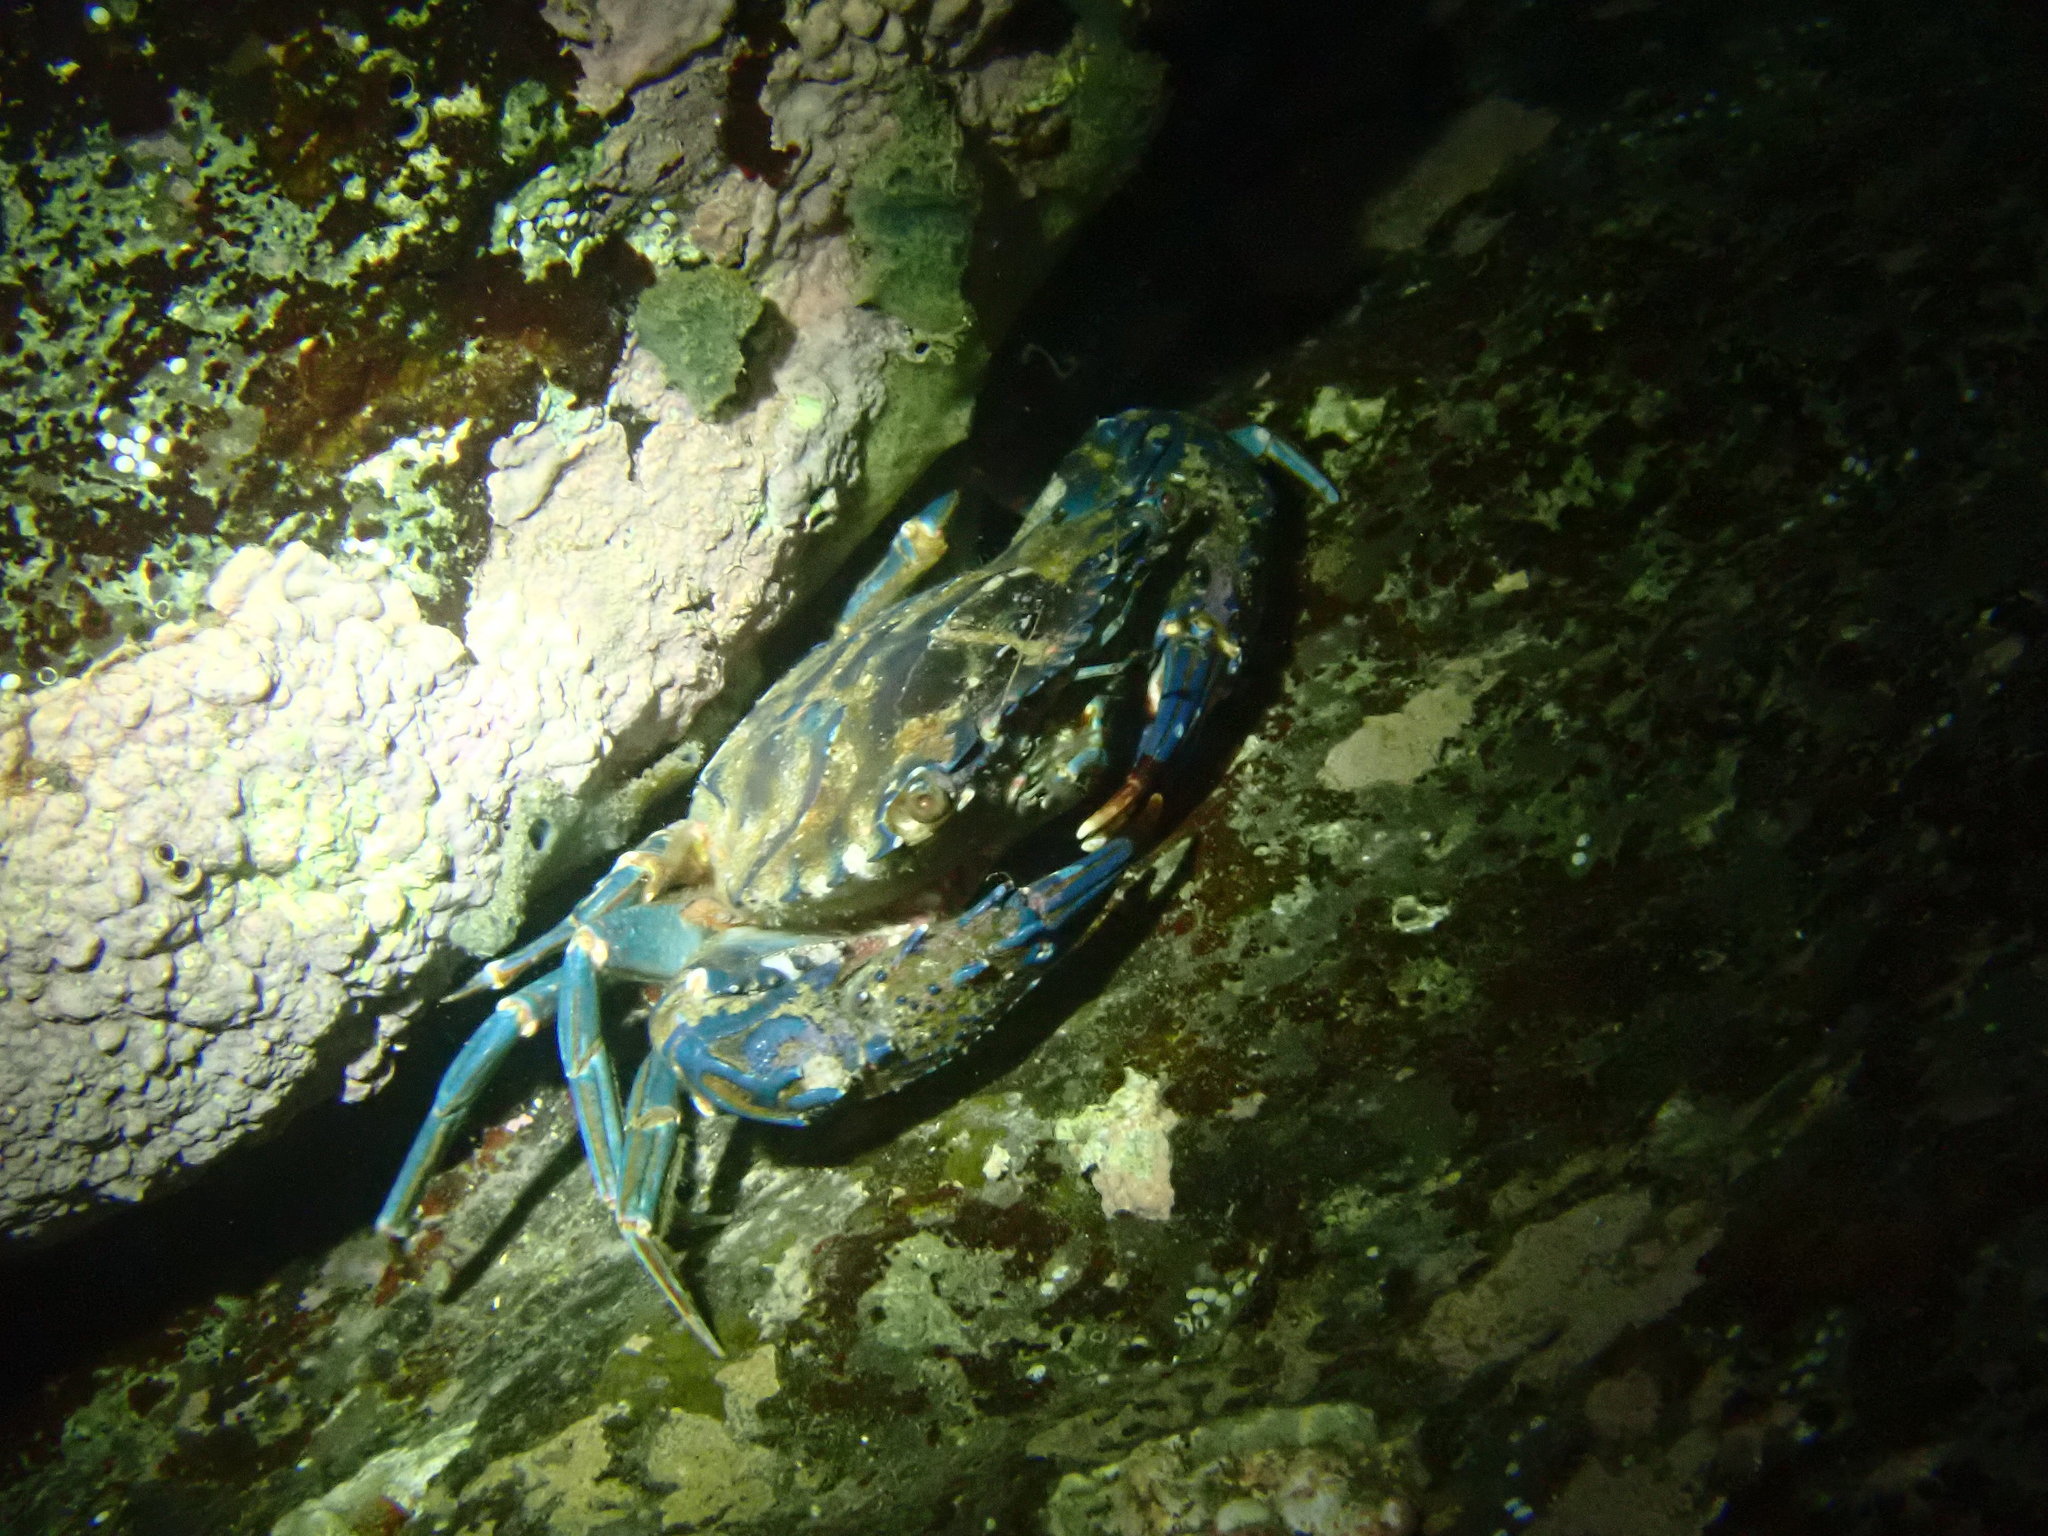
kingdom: Animalia
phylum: Arthropoda
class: Malacostraca
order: Decapoda
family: Portunidae
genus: Thalamita
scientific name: Thalamita pelsarti
